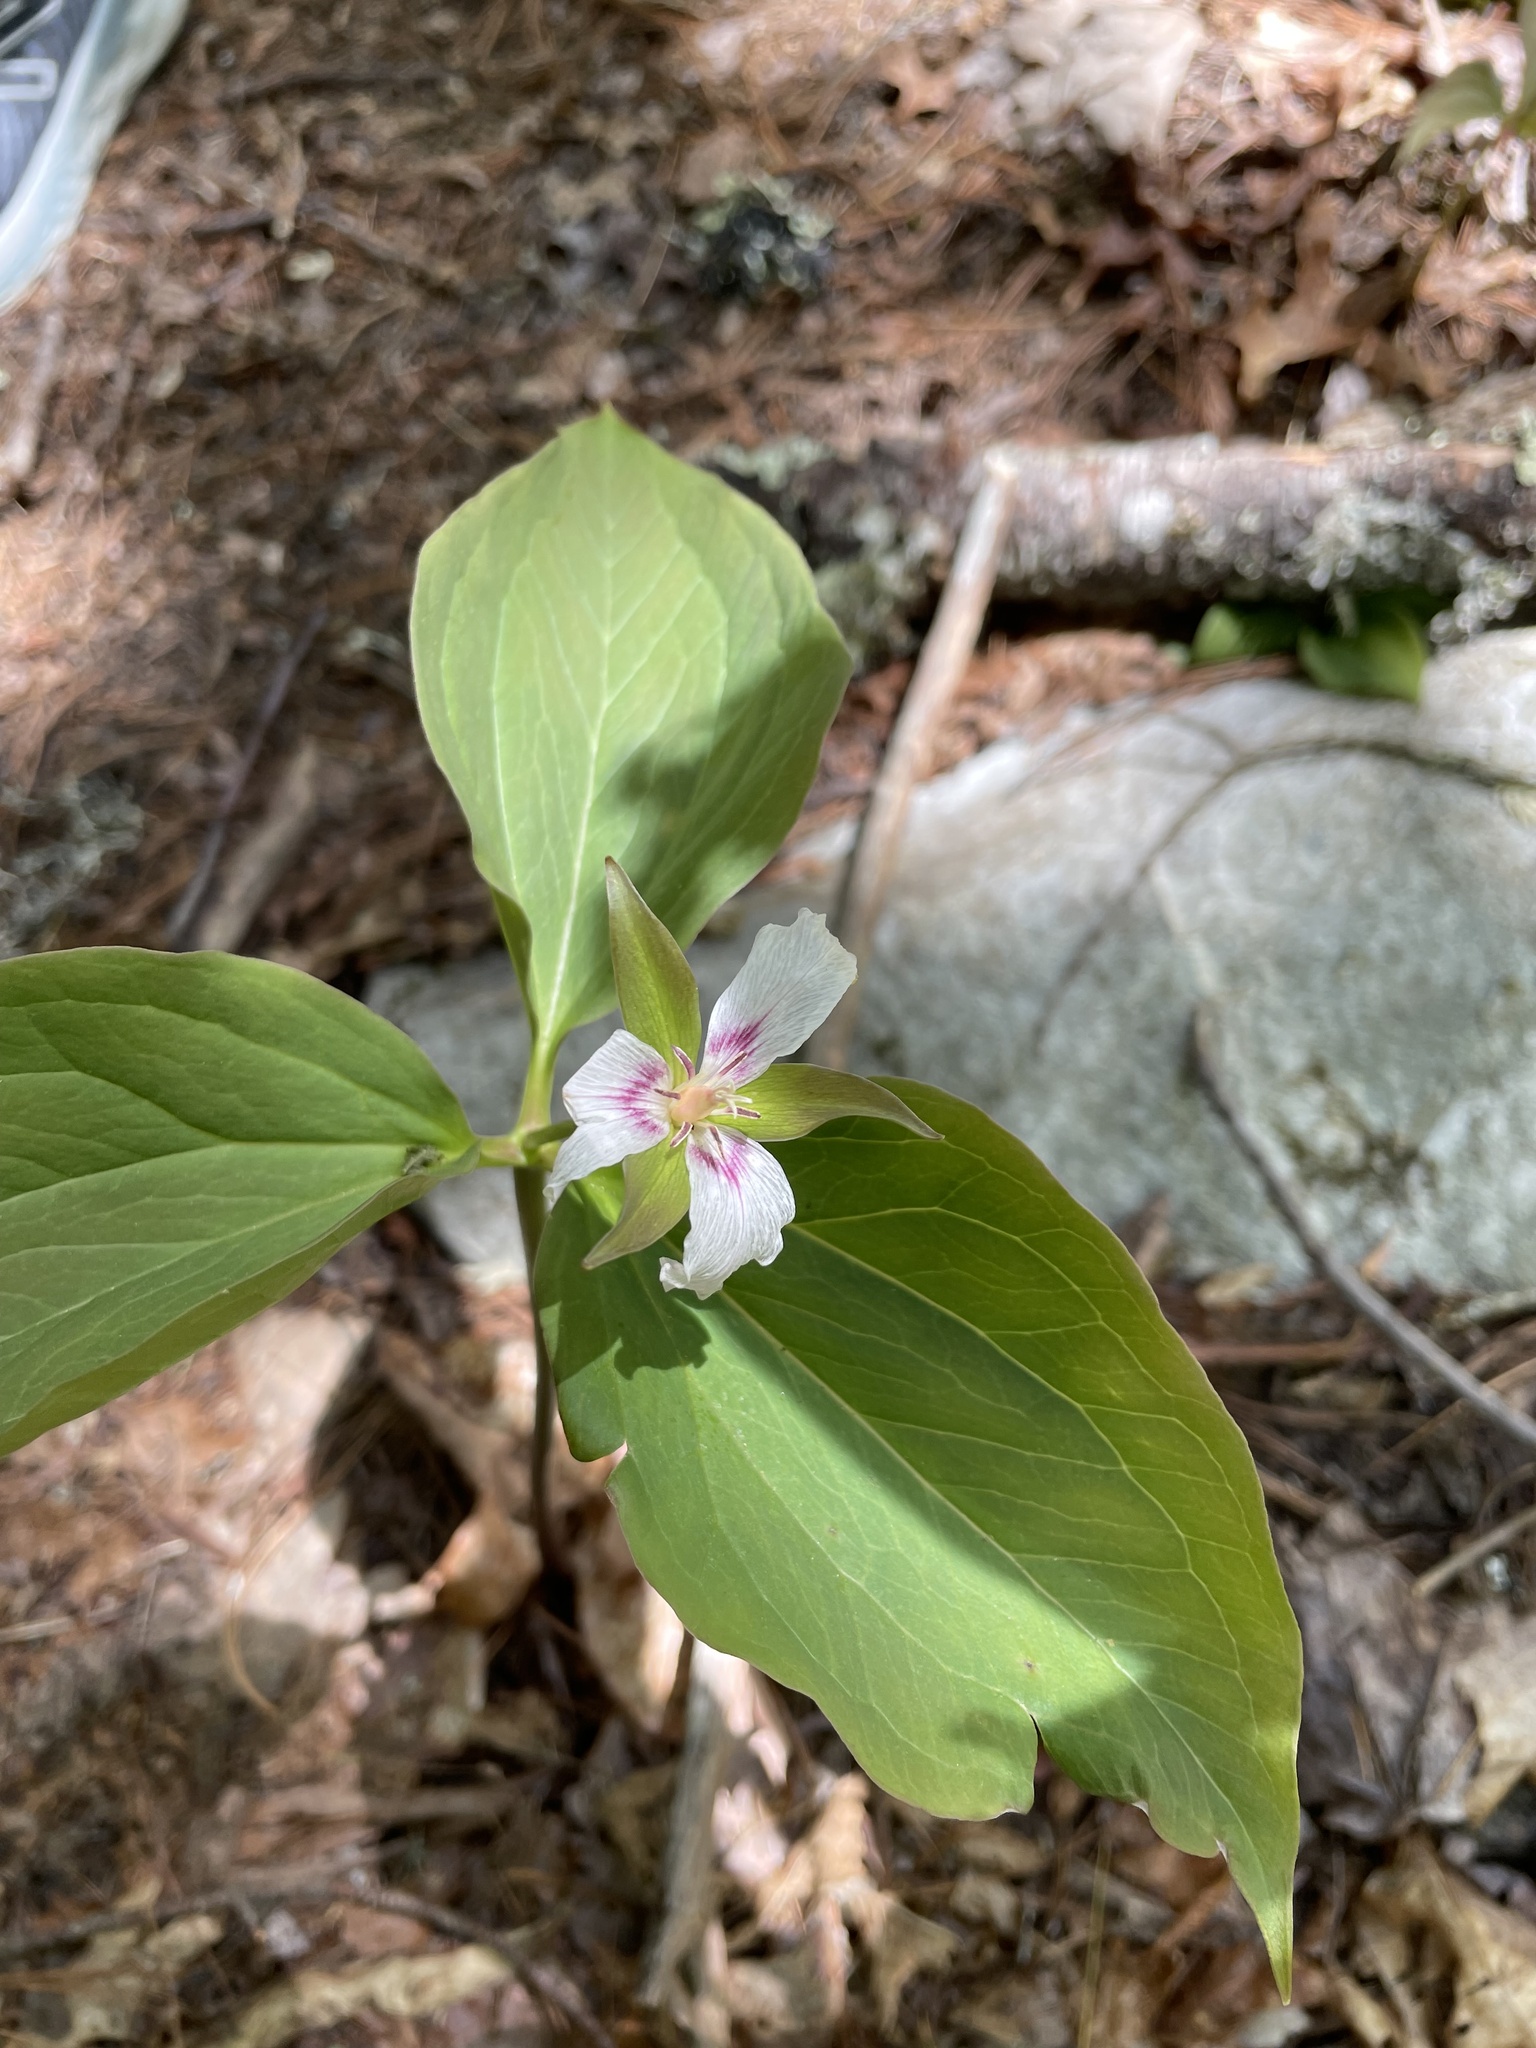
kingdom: Plantae
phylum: Tracheophyta
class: Liliopsida
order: Liliales
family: Melanthiaceae
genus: Trillium
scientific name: Trillium undulatum
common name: Paint trillium
